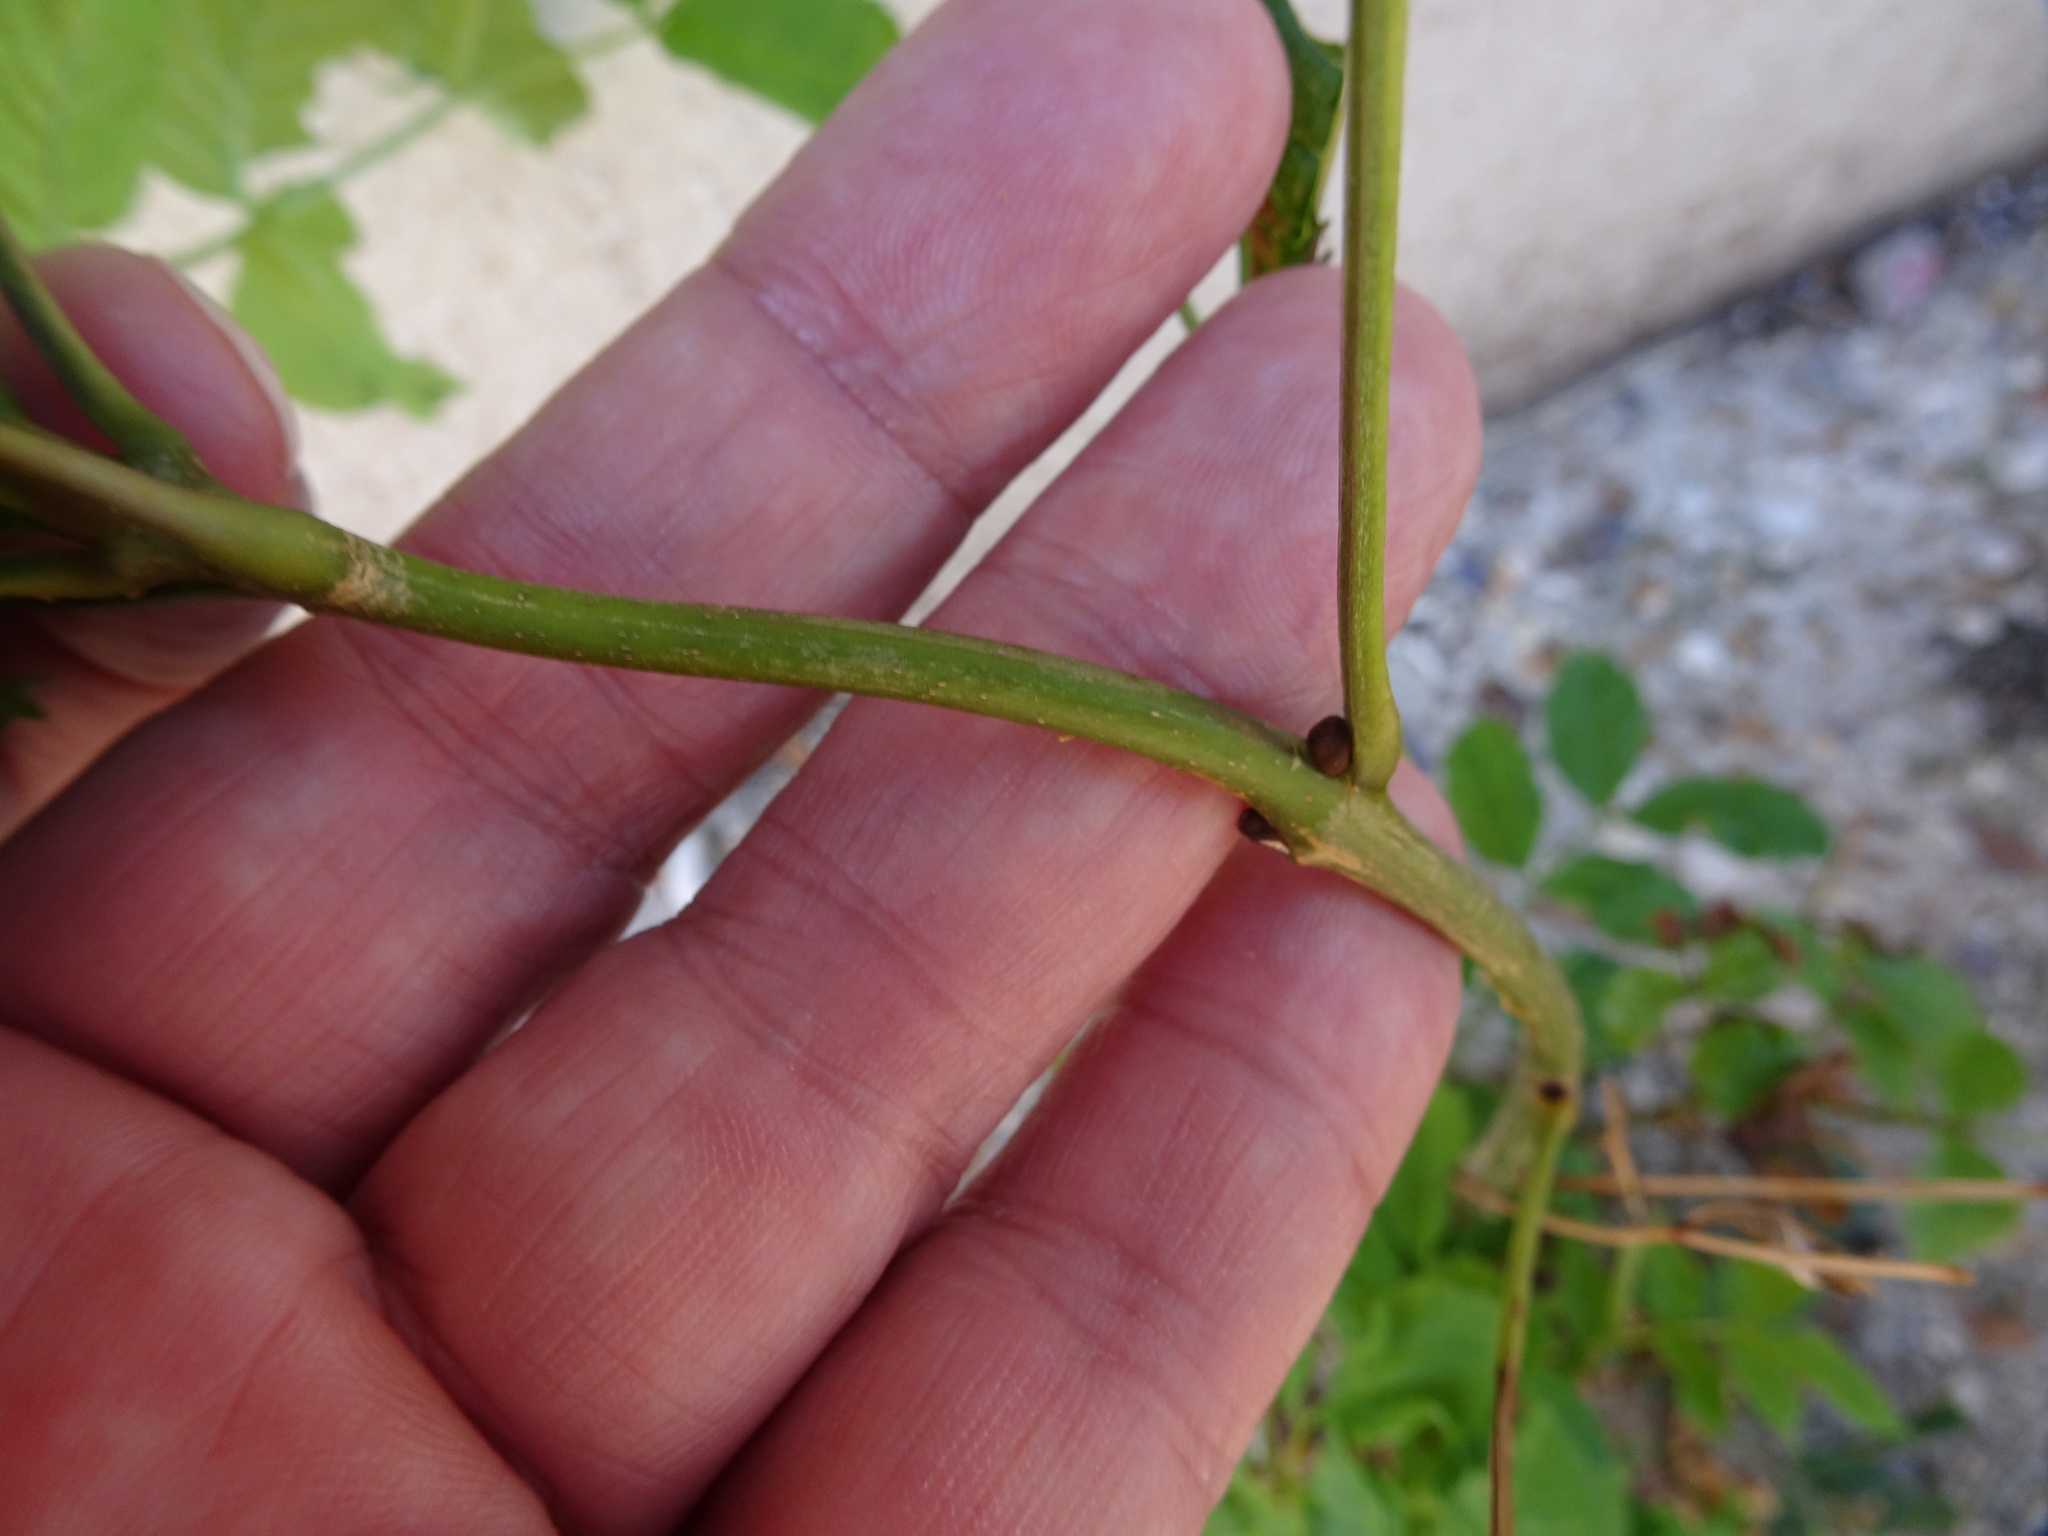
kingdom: Plantae
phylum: Tracheophyta
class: Magnoliopsida
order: Lamiales
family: Oleaceae
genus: Fraxinus
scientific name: Fraxinus excelsior
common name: European ash
